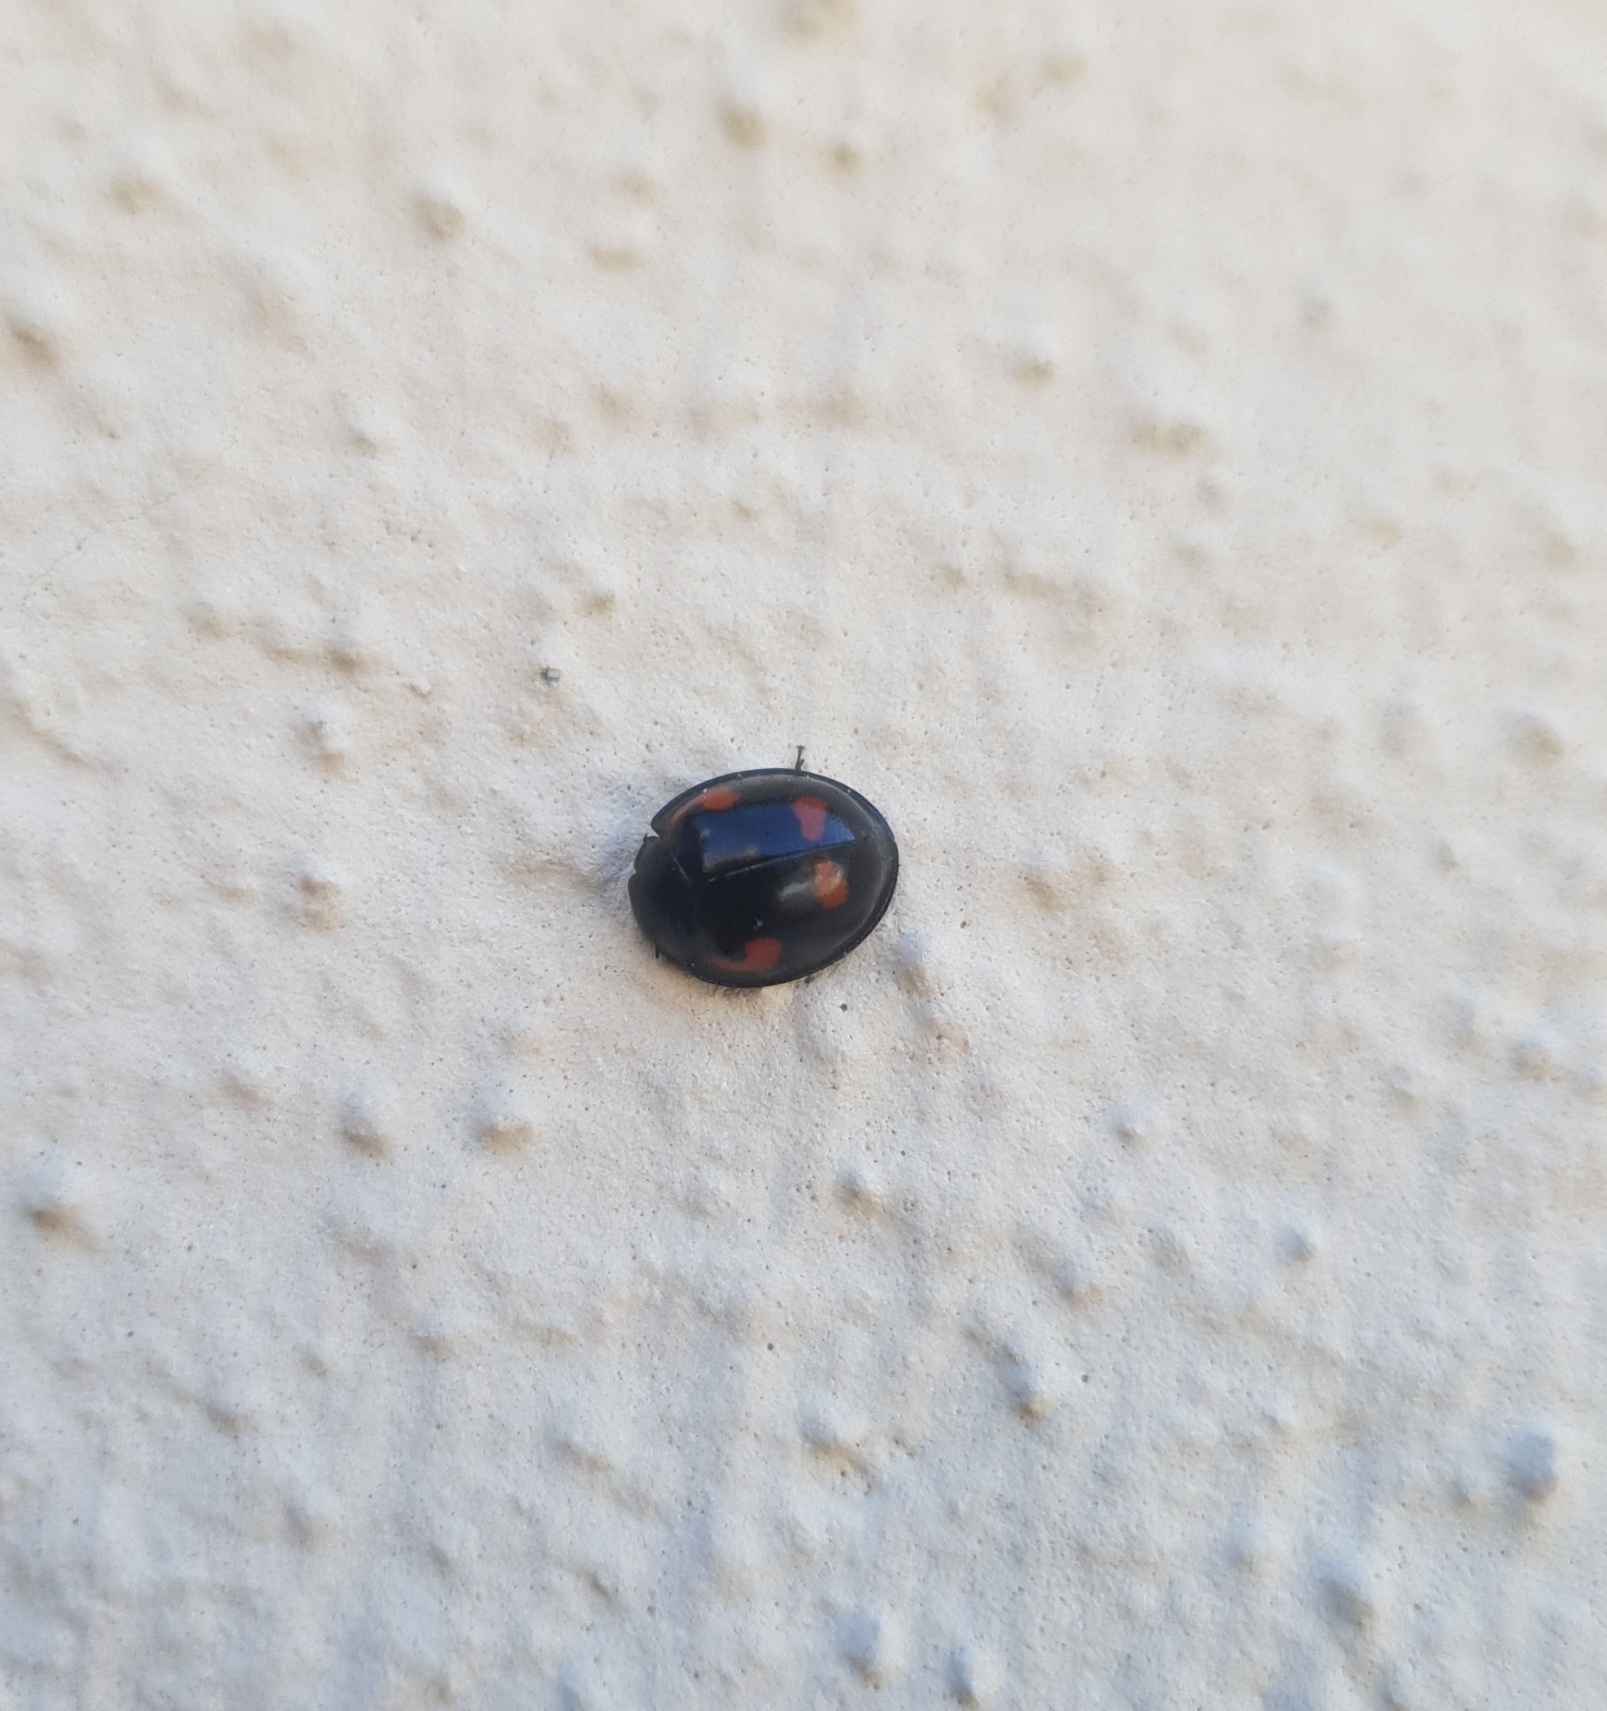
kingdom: Animalia
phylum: Arthropoda
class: Insecta
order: Coleoptera
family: Coccinellidae
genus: Brumus
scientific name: Brumus quadripustulatus
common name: Ladybird beetle
